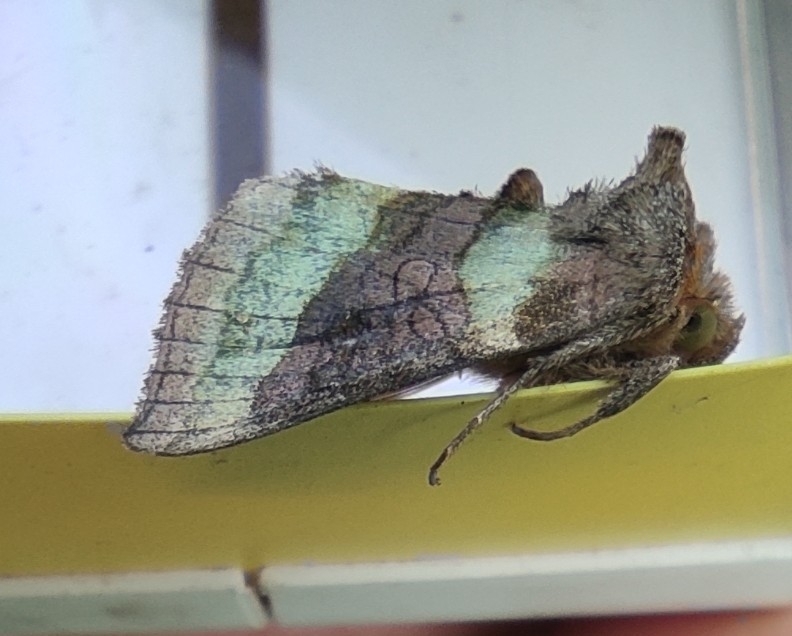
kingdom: Animalia
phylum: Arthropoda
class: Insecta
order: Lepidoptera
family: Noctuidae
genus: Diachrysia
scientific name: Diachrysia chrysitis
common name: Burnished brass
